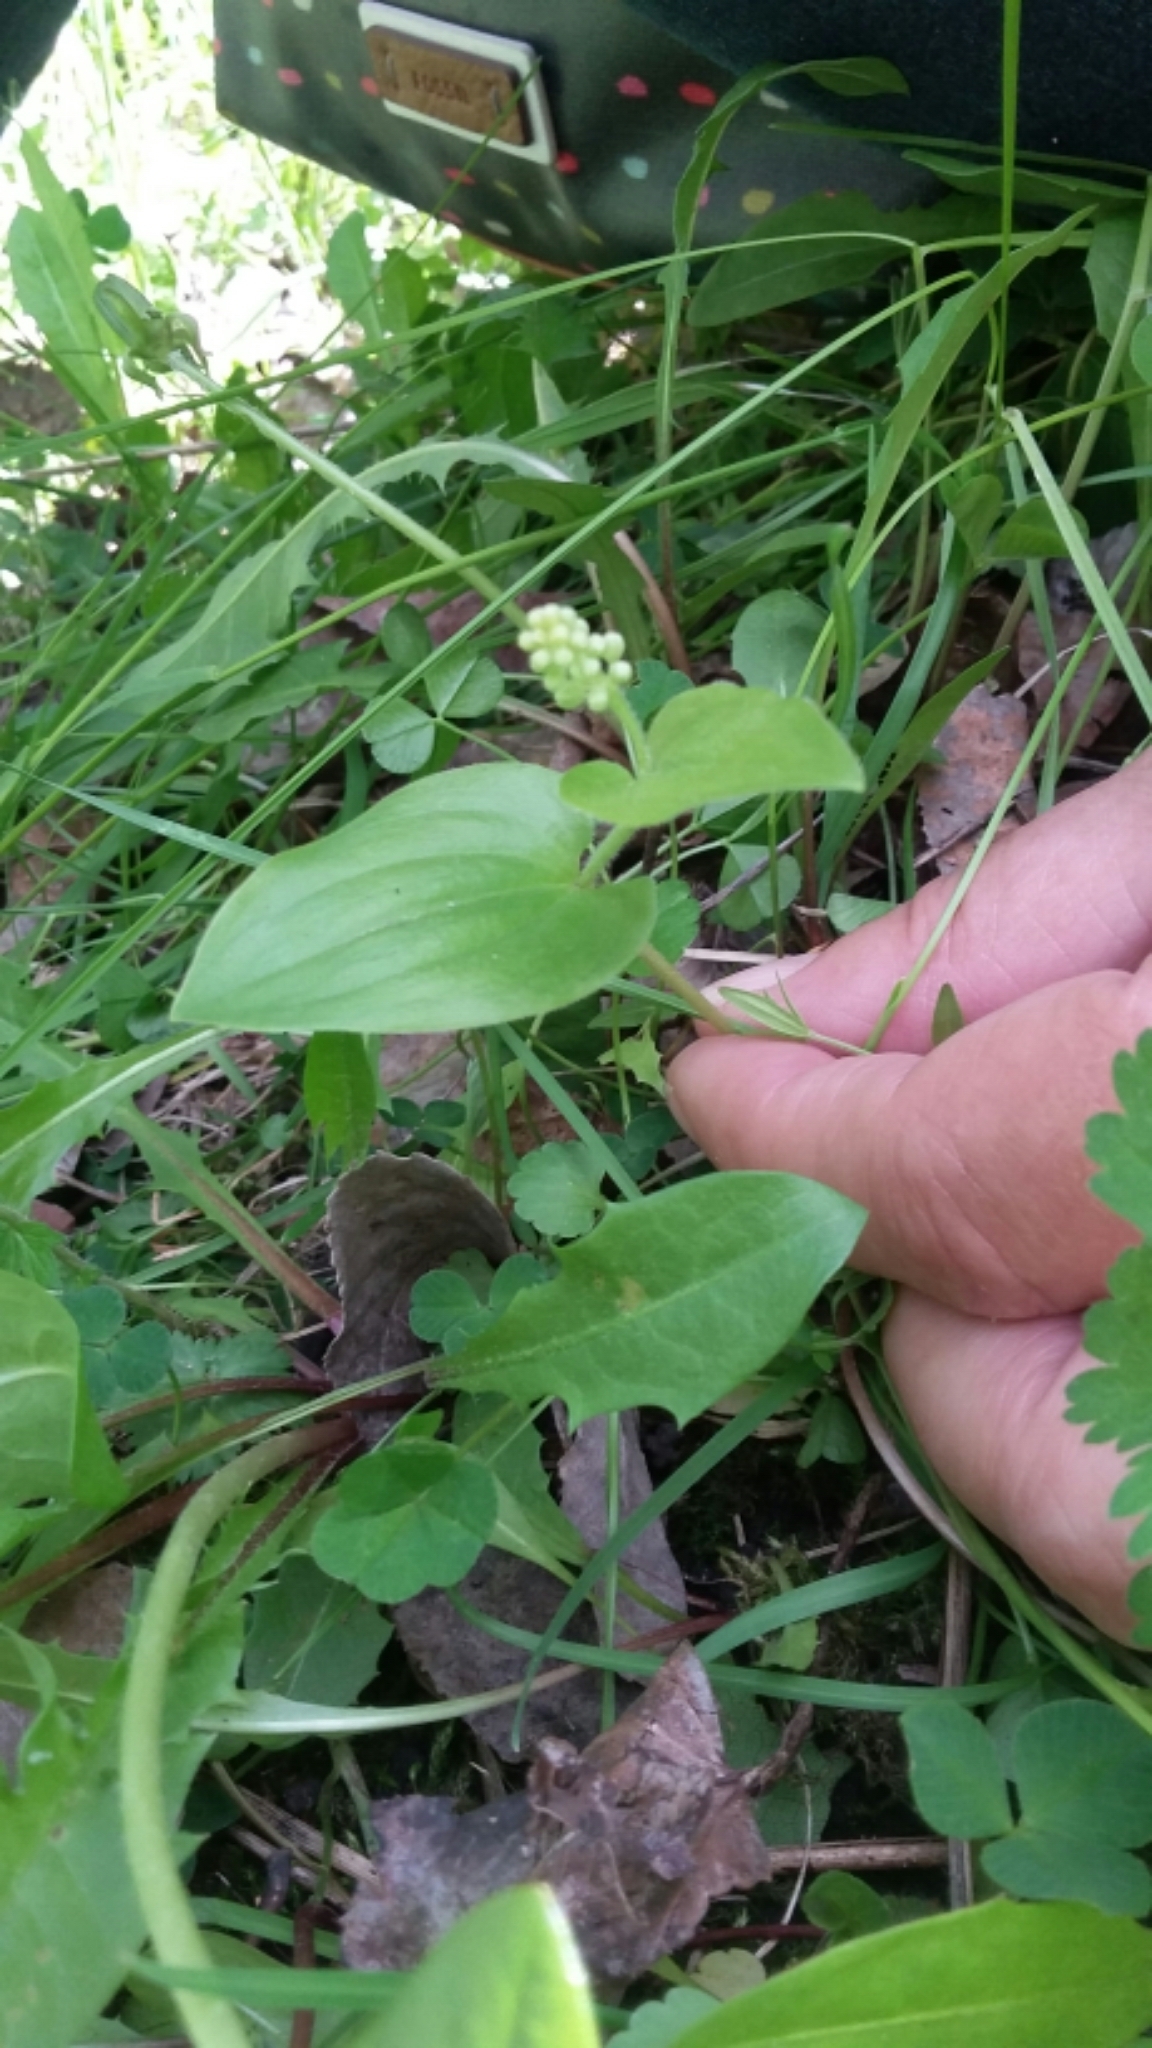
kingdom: Plantae
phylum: Tracheophyta
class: Liliopsida
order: Asparagales
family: Asparagaceae
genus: Maianthemum
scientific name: Maianthemum canadense
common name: False lily-of-the-valley
